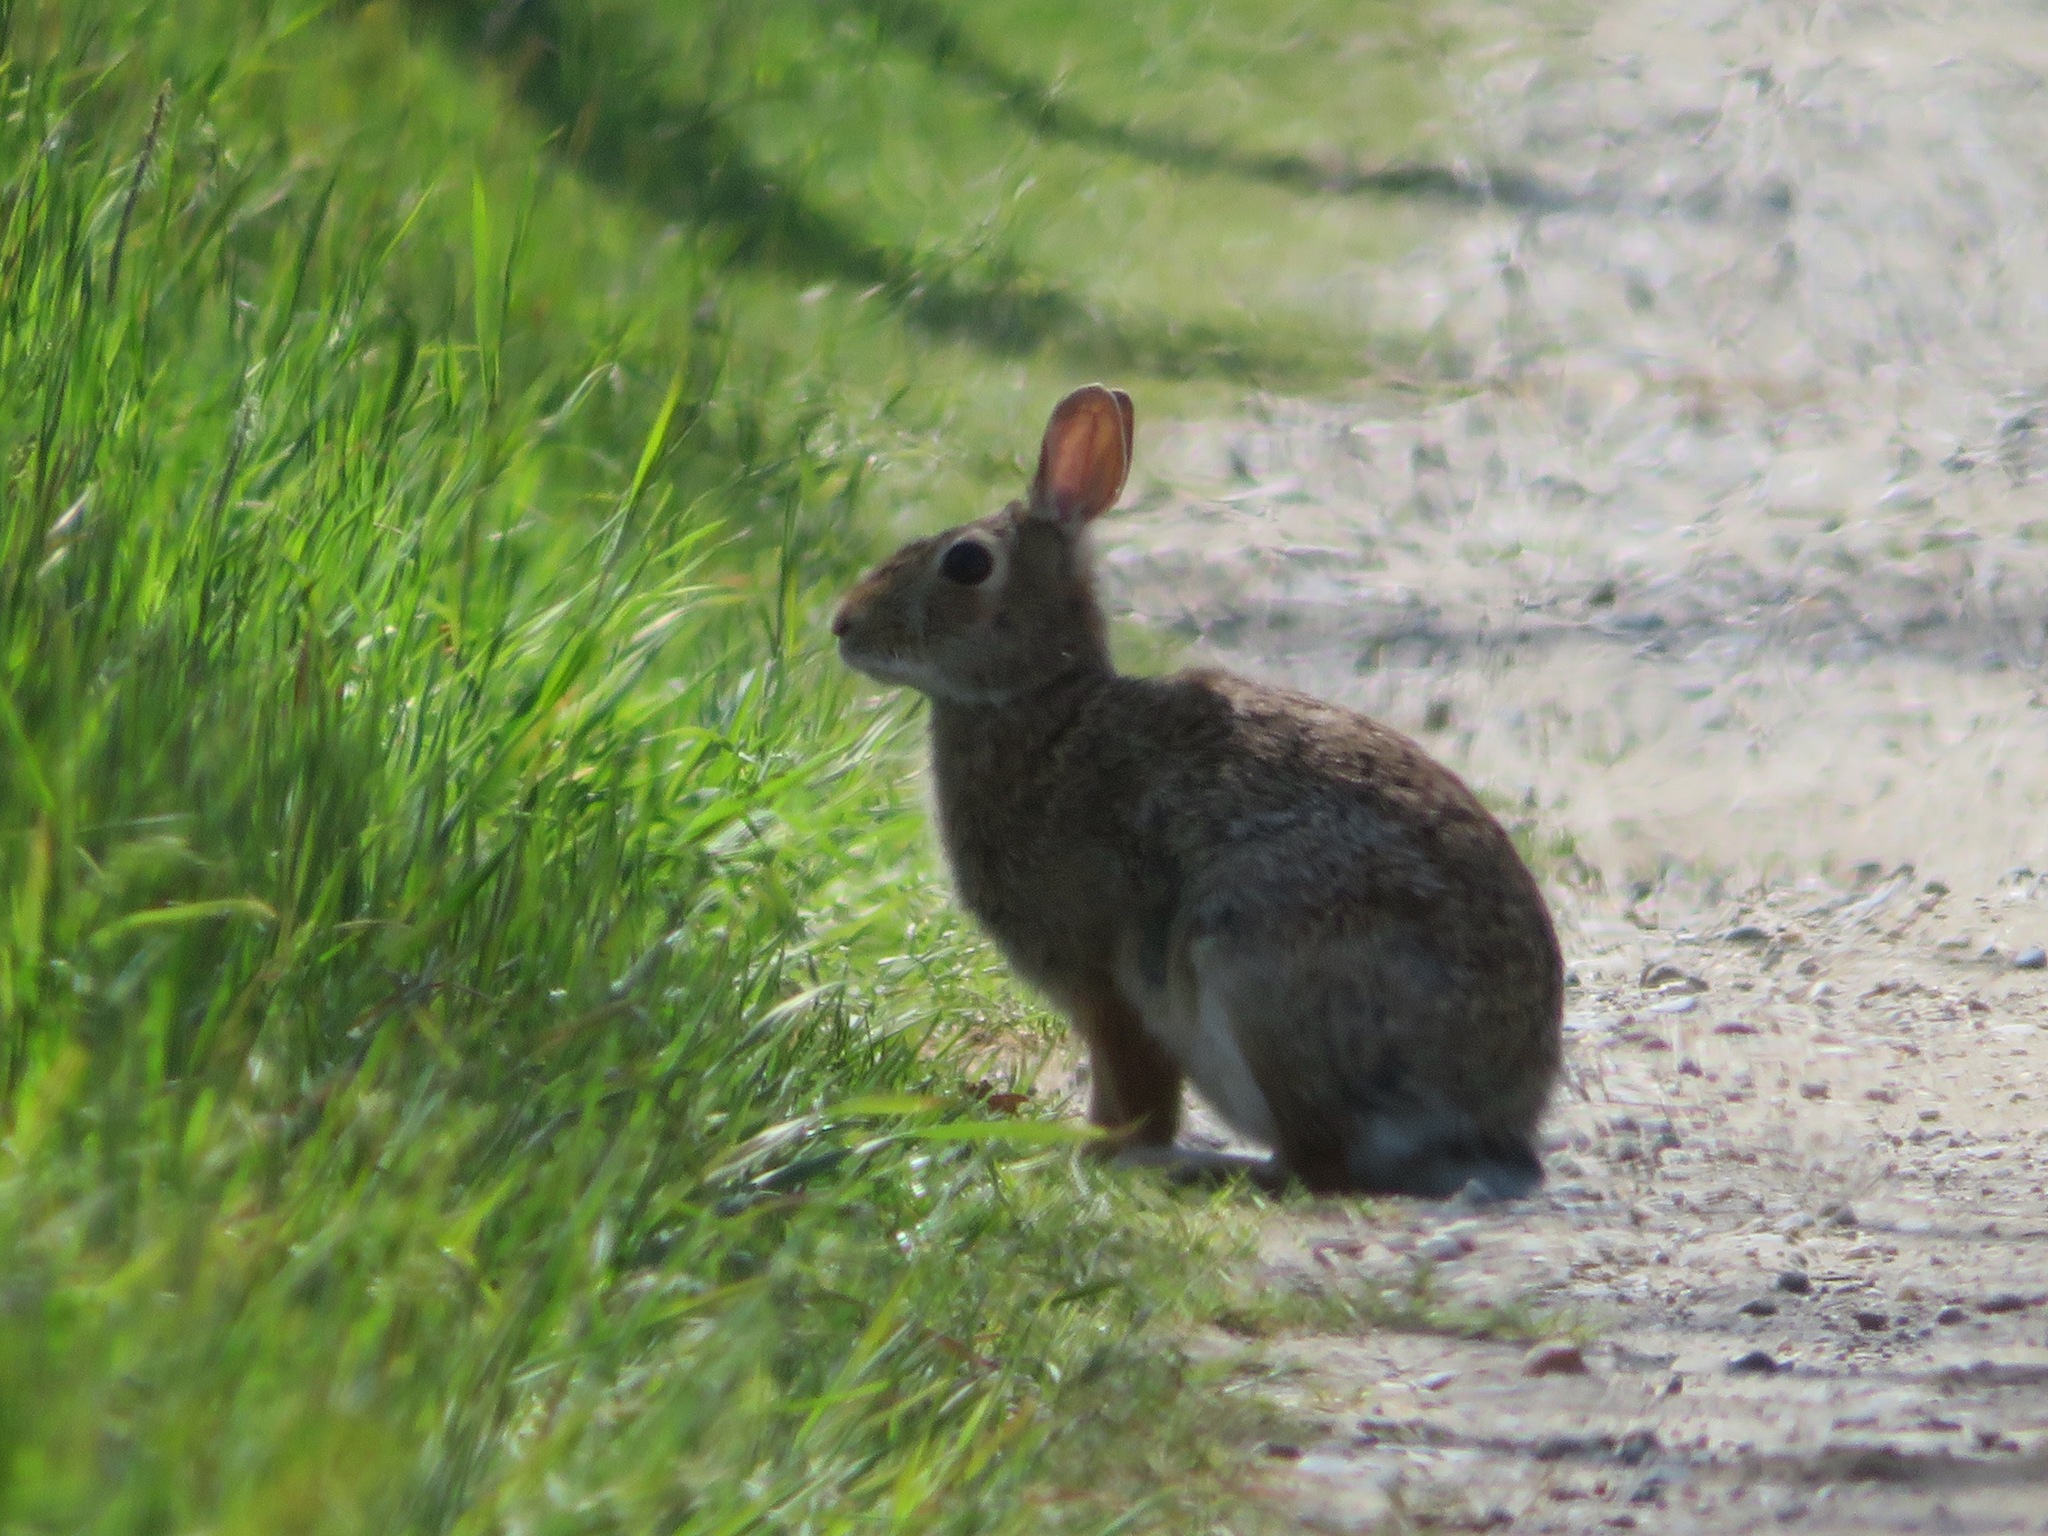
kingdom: Animalia
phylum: Chordata
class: Mammalia
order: Lagomorpha
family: Leporidae
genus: Sylvilagus
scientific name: Sylvilagus floridanus
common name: Eastern cottontail
